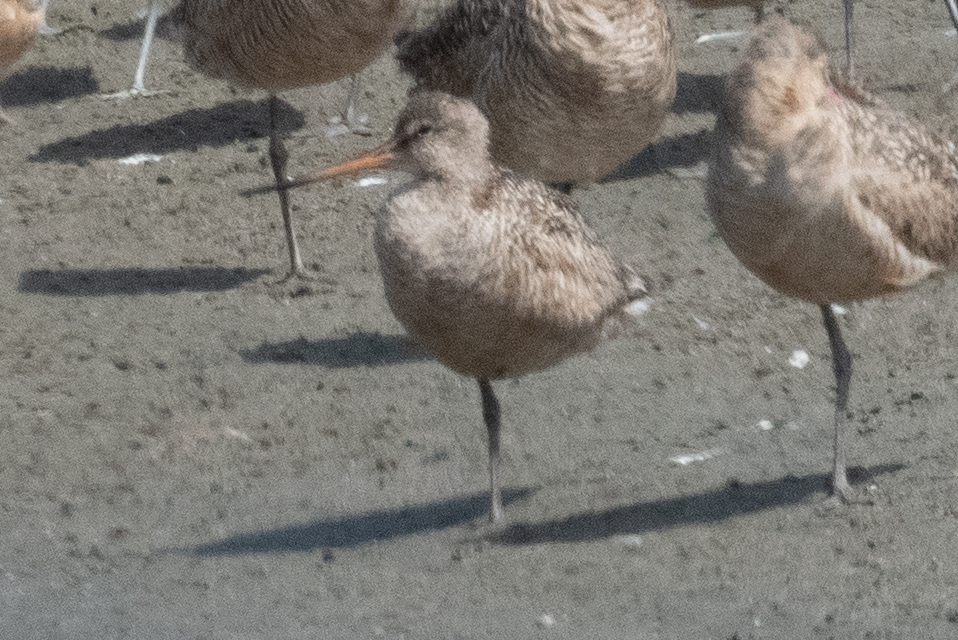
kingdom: Animalia
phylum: Chordata
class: Aves
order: Charadriiformes
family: Scolopacidae
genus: Limosa
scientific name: Limosa fedoa
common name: Marbled godwit
